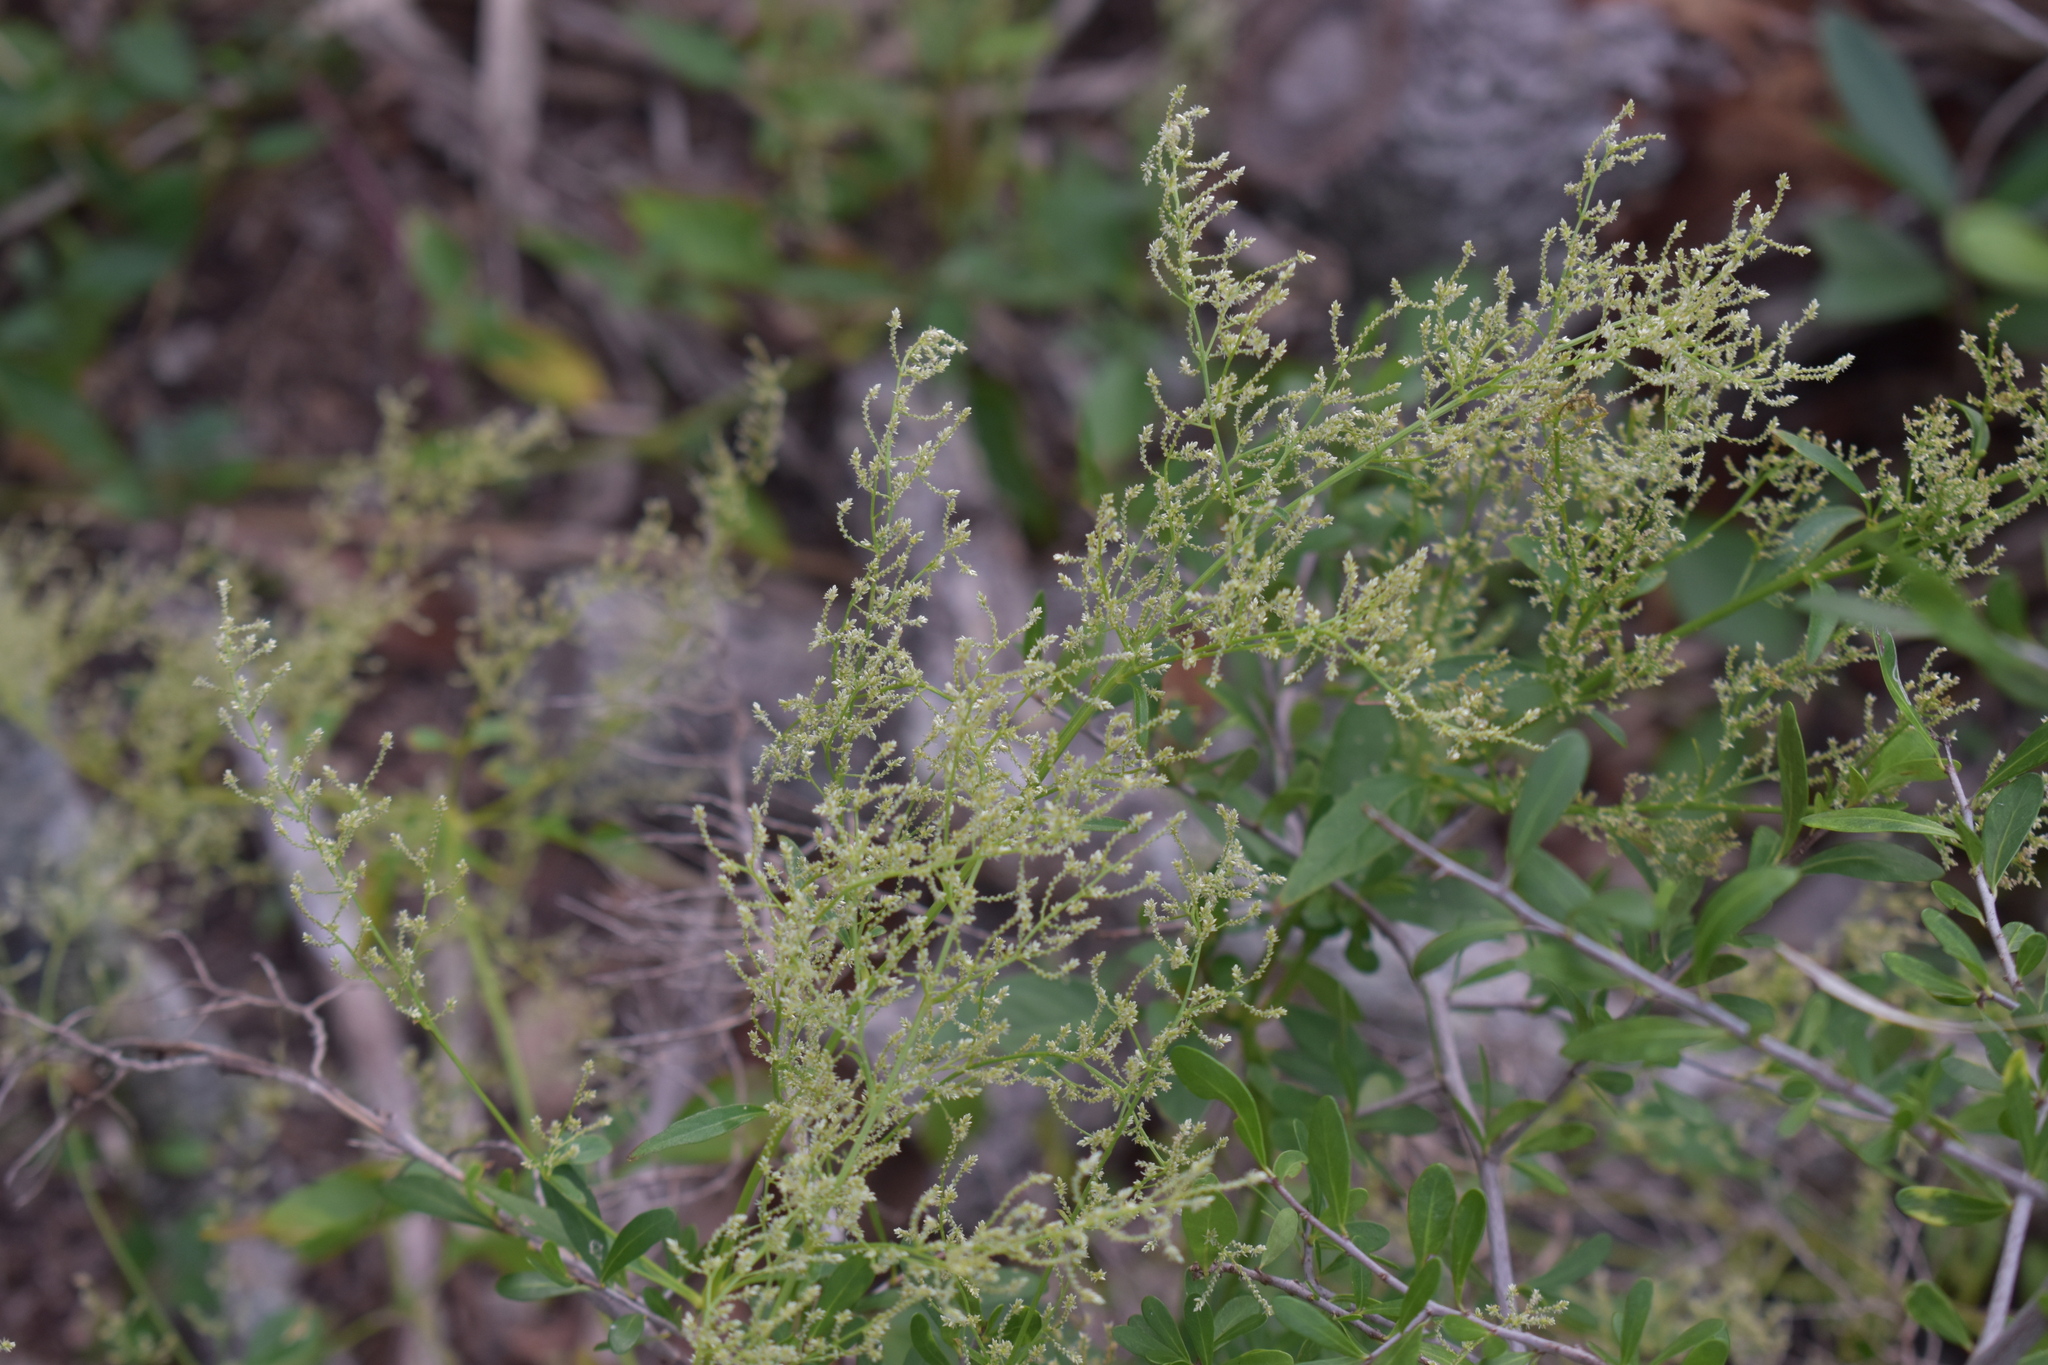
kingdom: Plantae
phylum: Tracheophyta
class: Magnoliopsida
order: Caryophyllales
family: Amaranthaceae
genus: Iresine
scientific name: Iresine diffusa
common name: Juba's-bush
